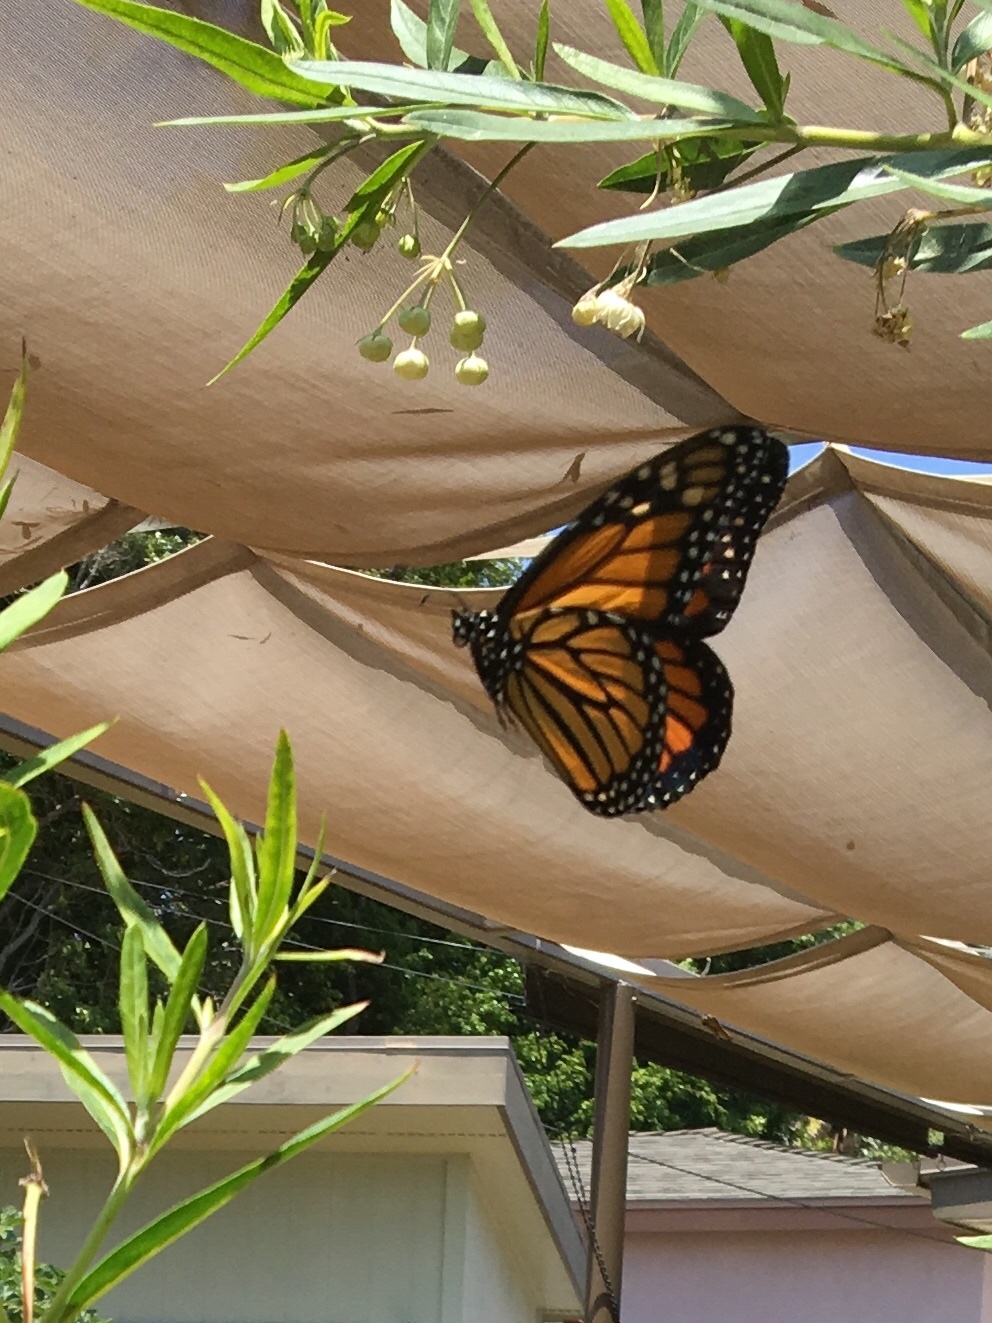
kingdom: Animalia
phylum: Arthropoda
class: Insecta
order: Lepidoptera
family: Nymphalidae
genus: Danaus
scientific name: Danaus plexippus
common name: Monarch
